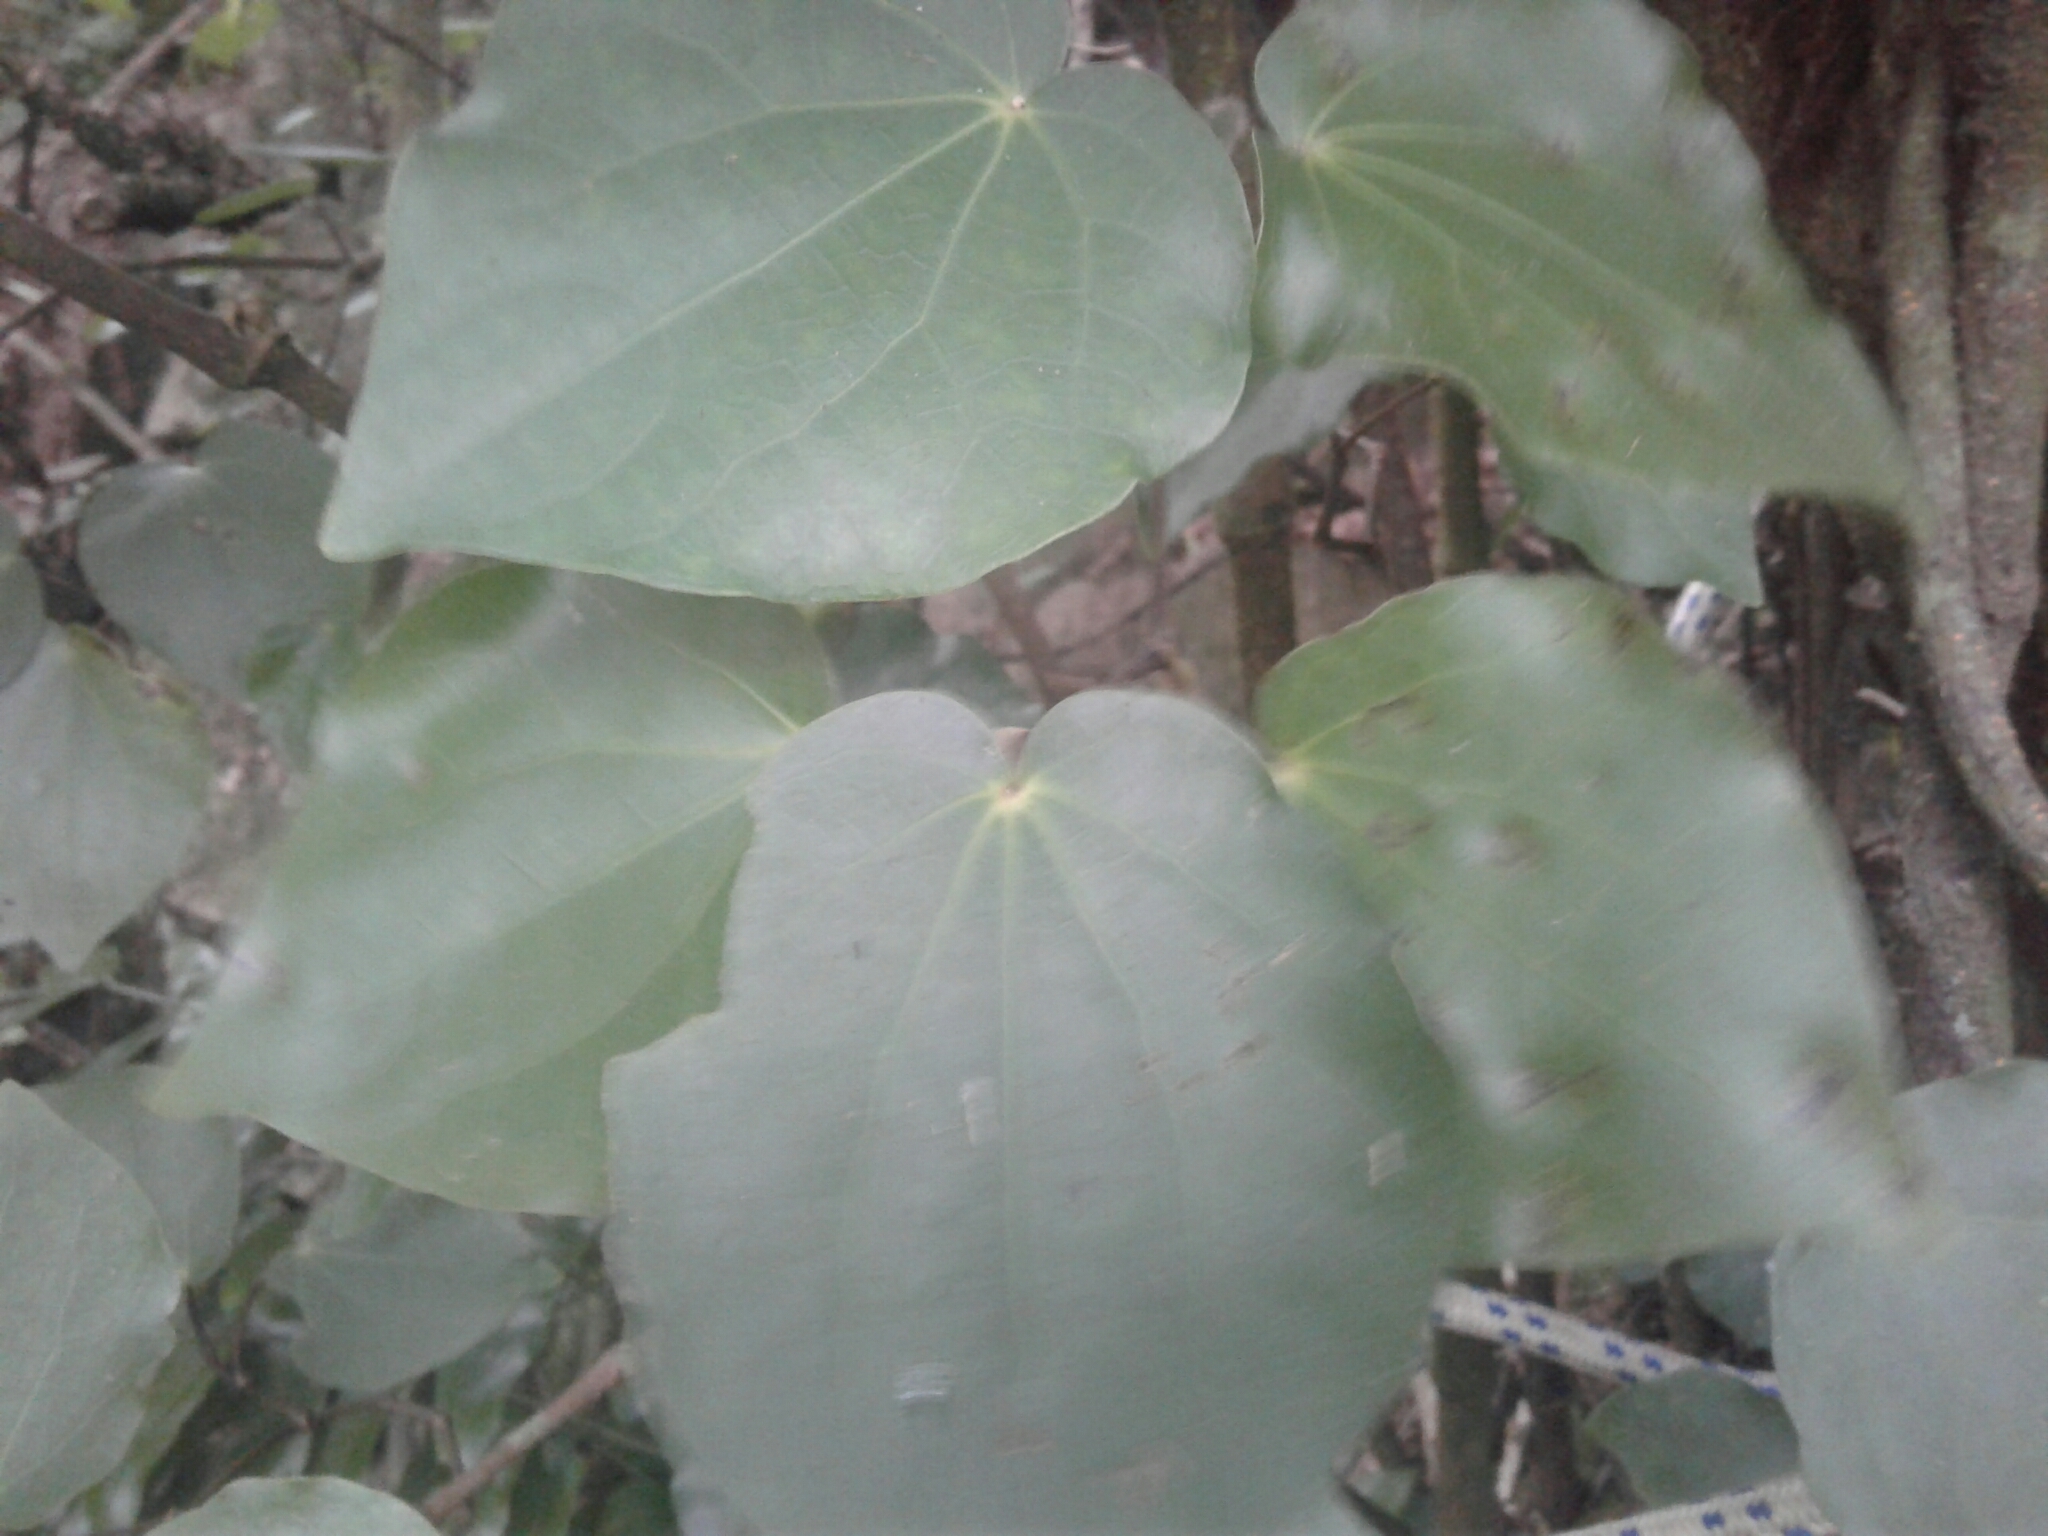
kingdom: Plantae
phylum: Tracheophyta
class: Magnoliopsida
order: Piperales
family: Piperaceae
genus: Macropiper
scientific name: Macropiper excelsum
